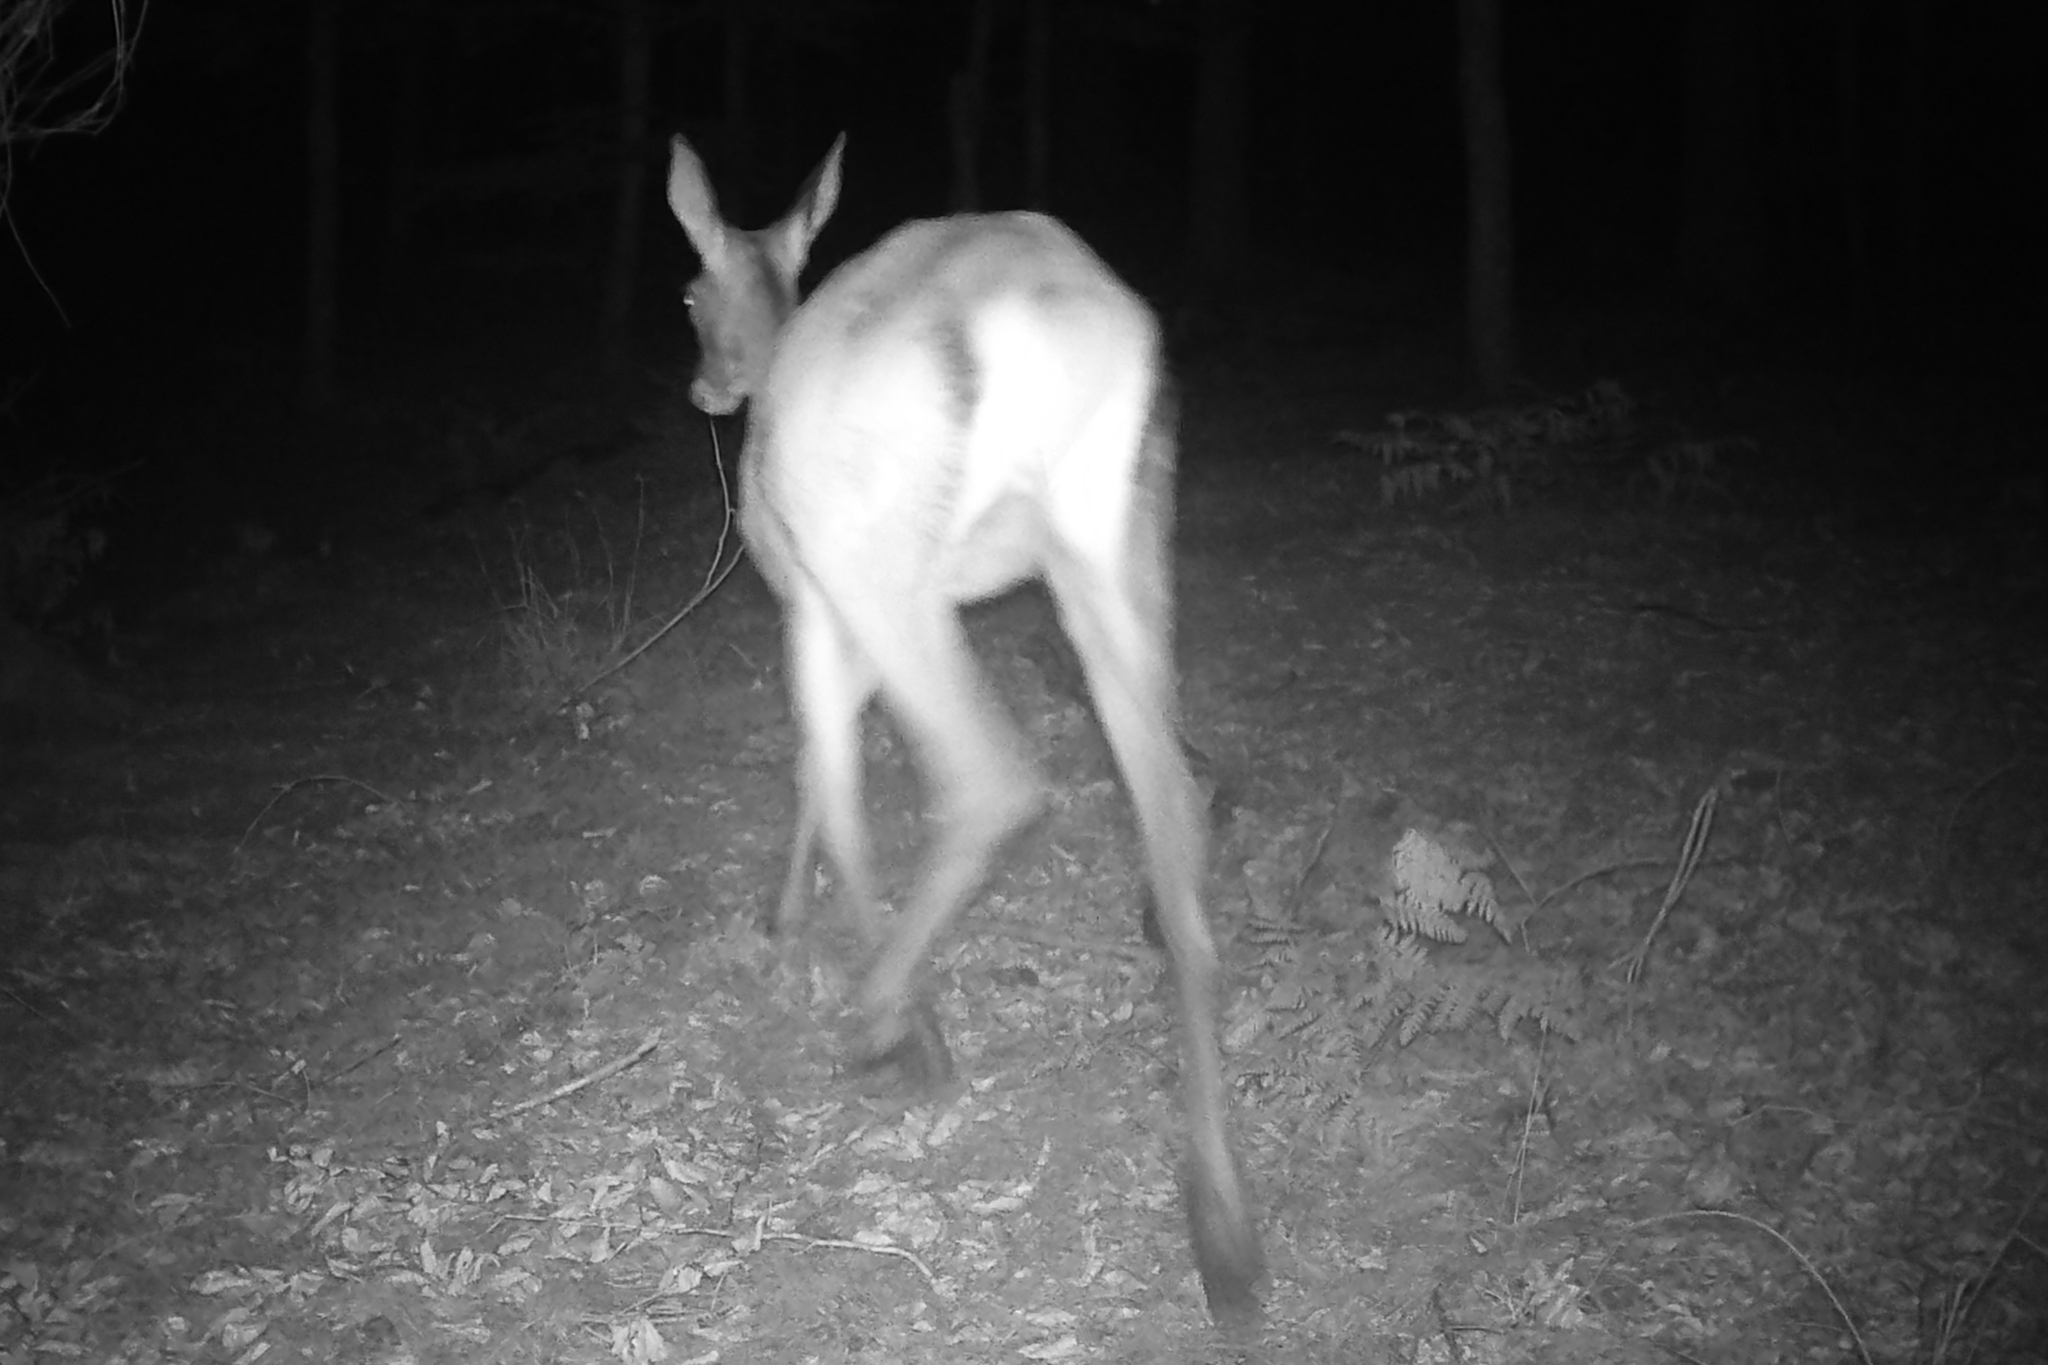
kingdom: Animalia
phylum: Chordata
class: Mammalia
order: Artiodactyla
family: Cervidae
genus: Cervus
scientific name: Cervus elaphus
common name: Red deer
